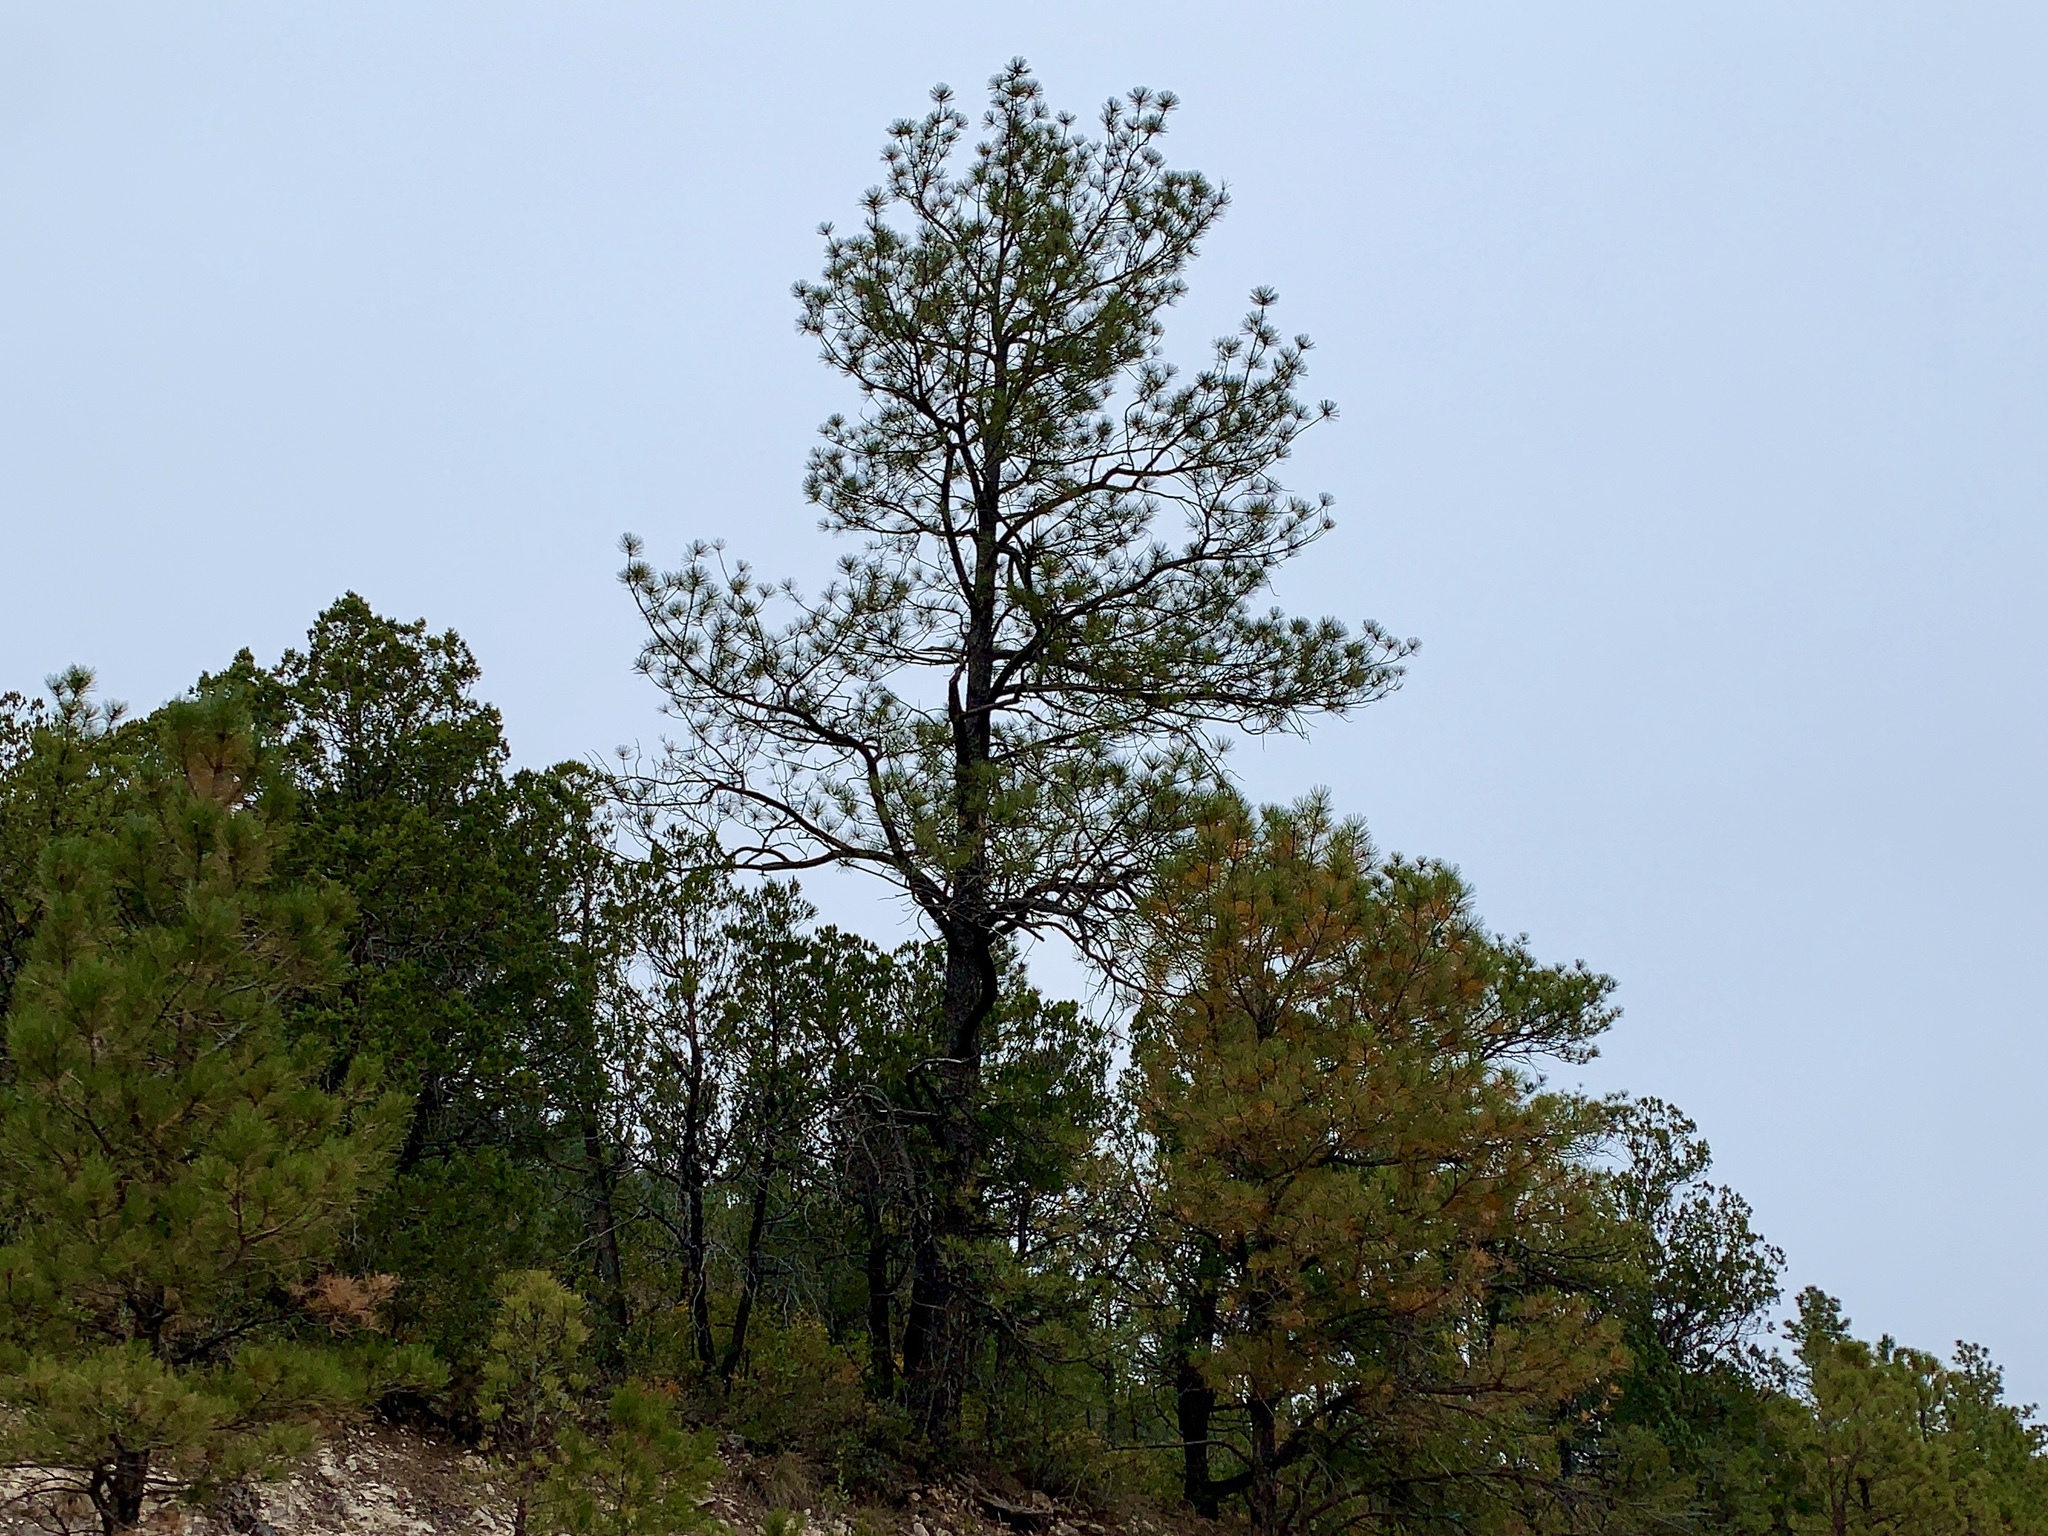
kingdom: Plantae
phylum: Tracheophyta
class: Pinopsida
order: Pinales
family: Pinaceae
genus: Pinus
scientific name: Pinus ponderosa
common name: Western yellow-pine
